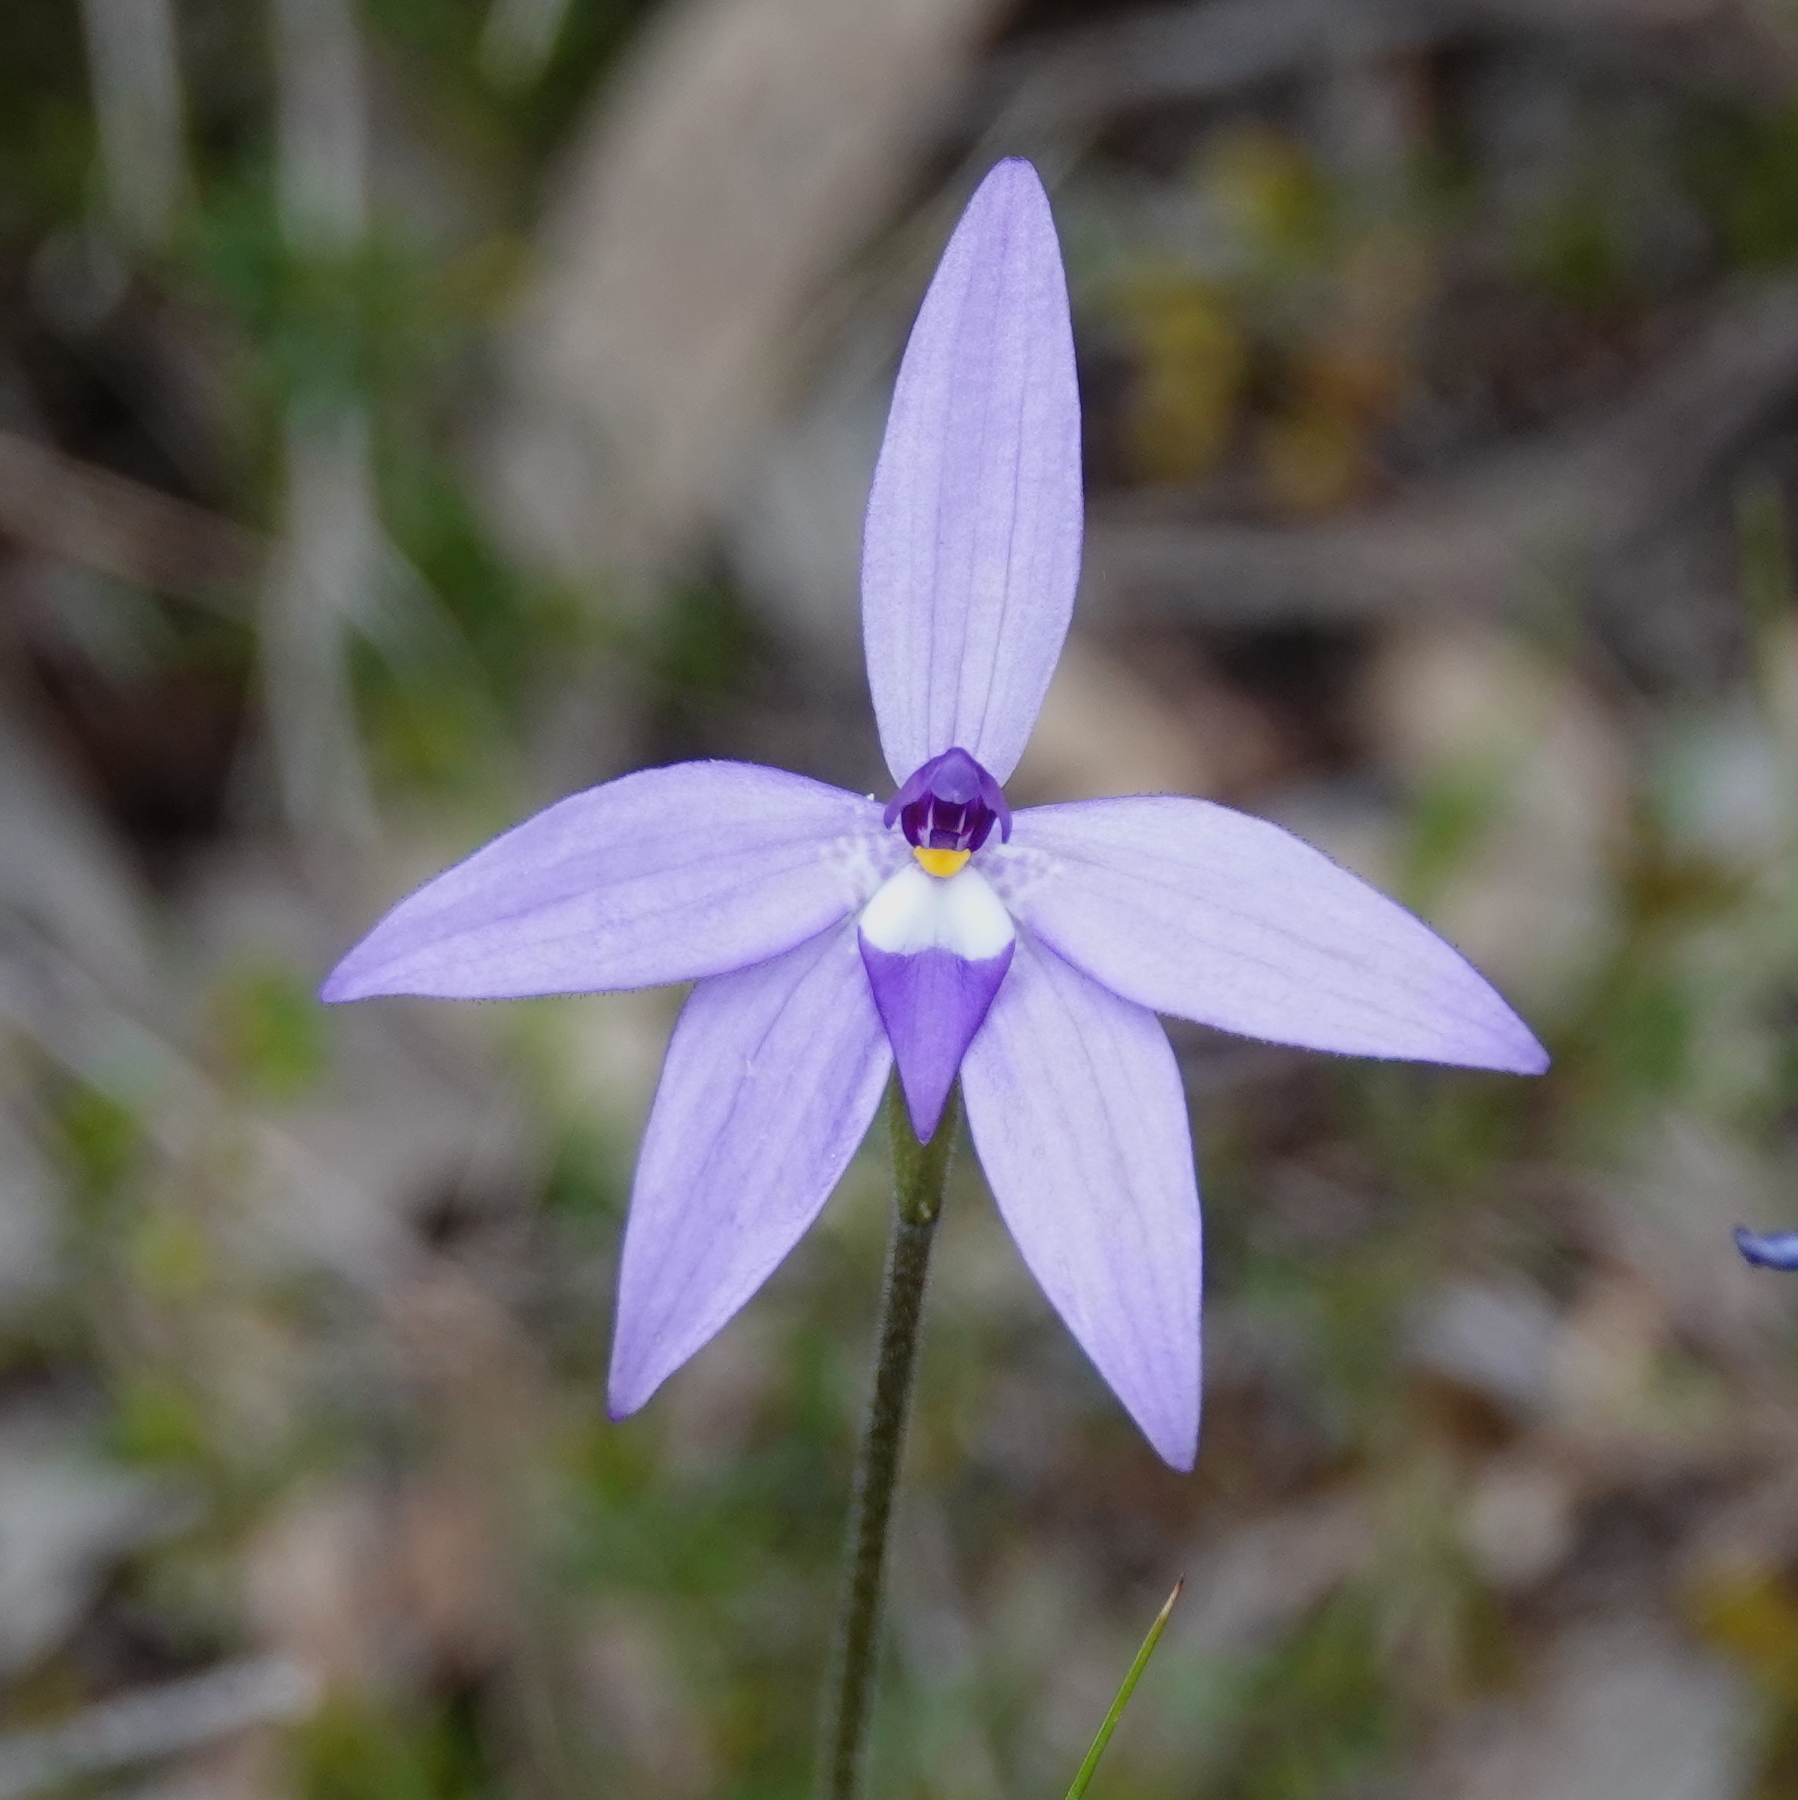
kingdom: Plantae
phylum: Tracheophyta
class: Liliopsida
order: Asparagales
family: Orchidaceae
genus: Caladenia
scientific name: Caladenia major
